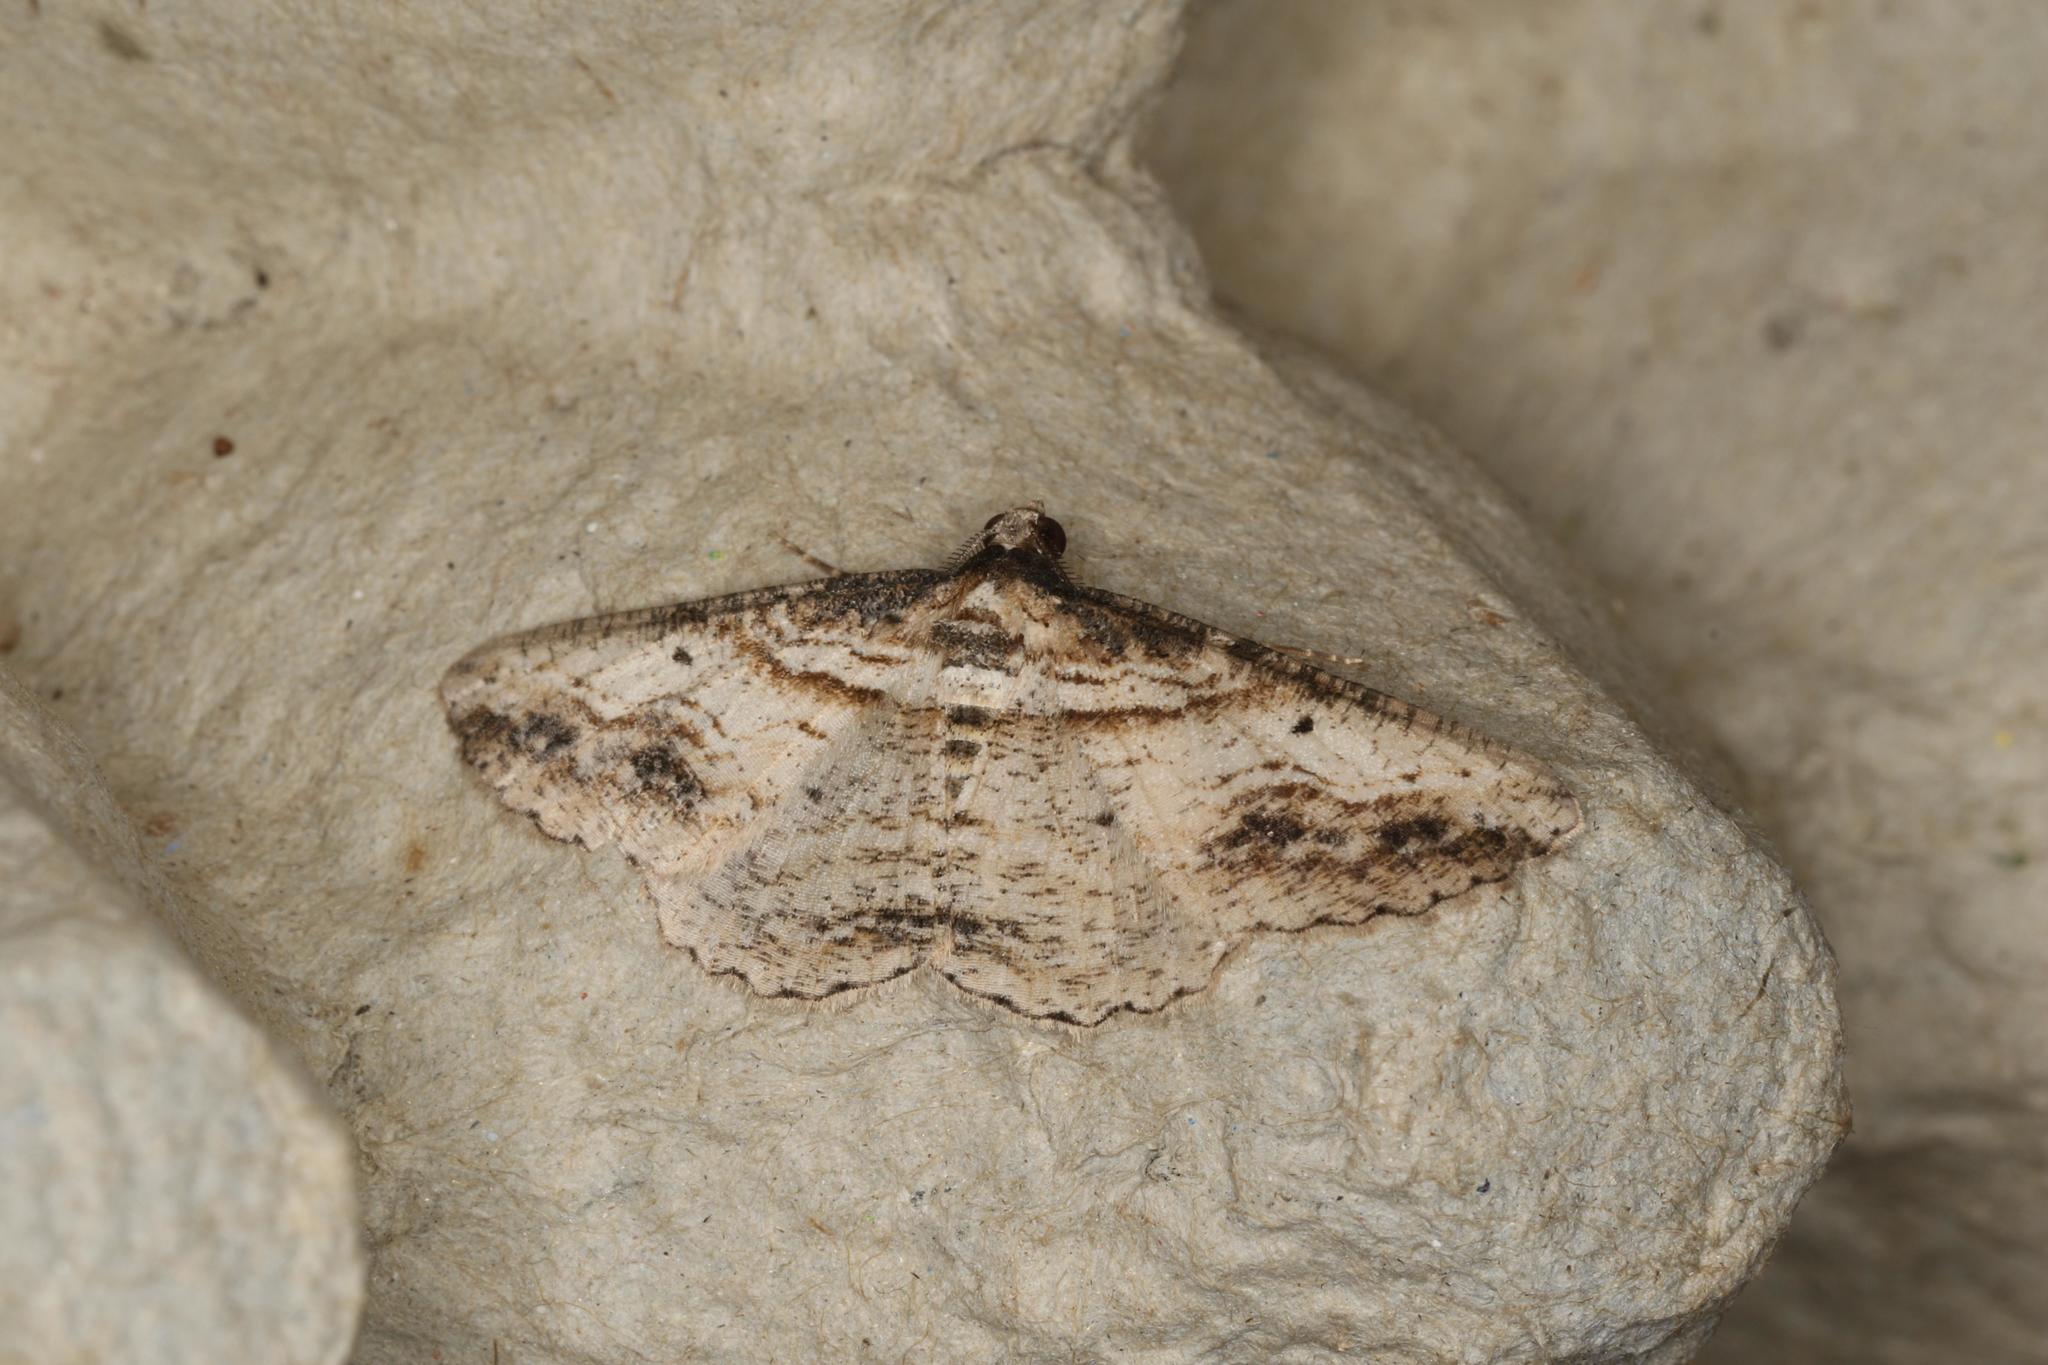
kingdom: Animalia
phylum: Arthropoda
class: Insecta
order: Lepidoptera
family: Geometridae
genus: Syneora
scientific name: Syneora euboliaria
